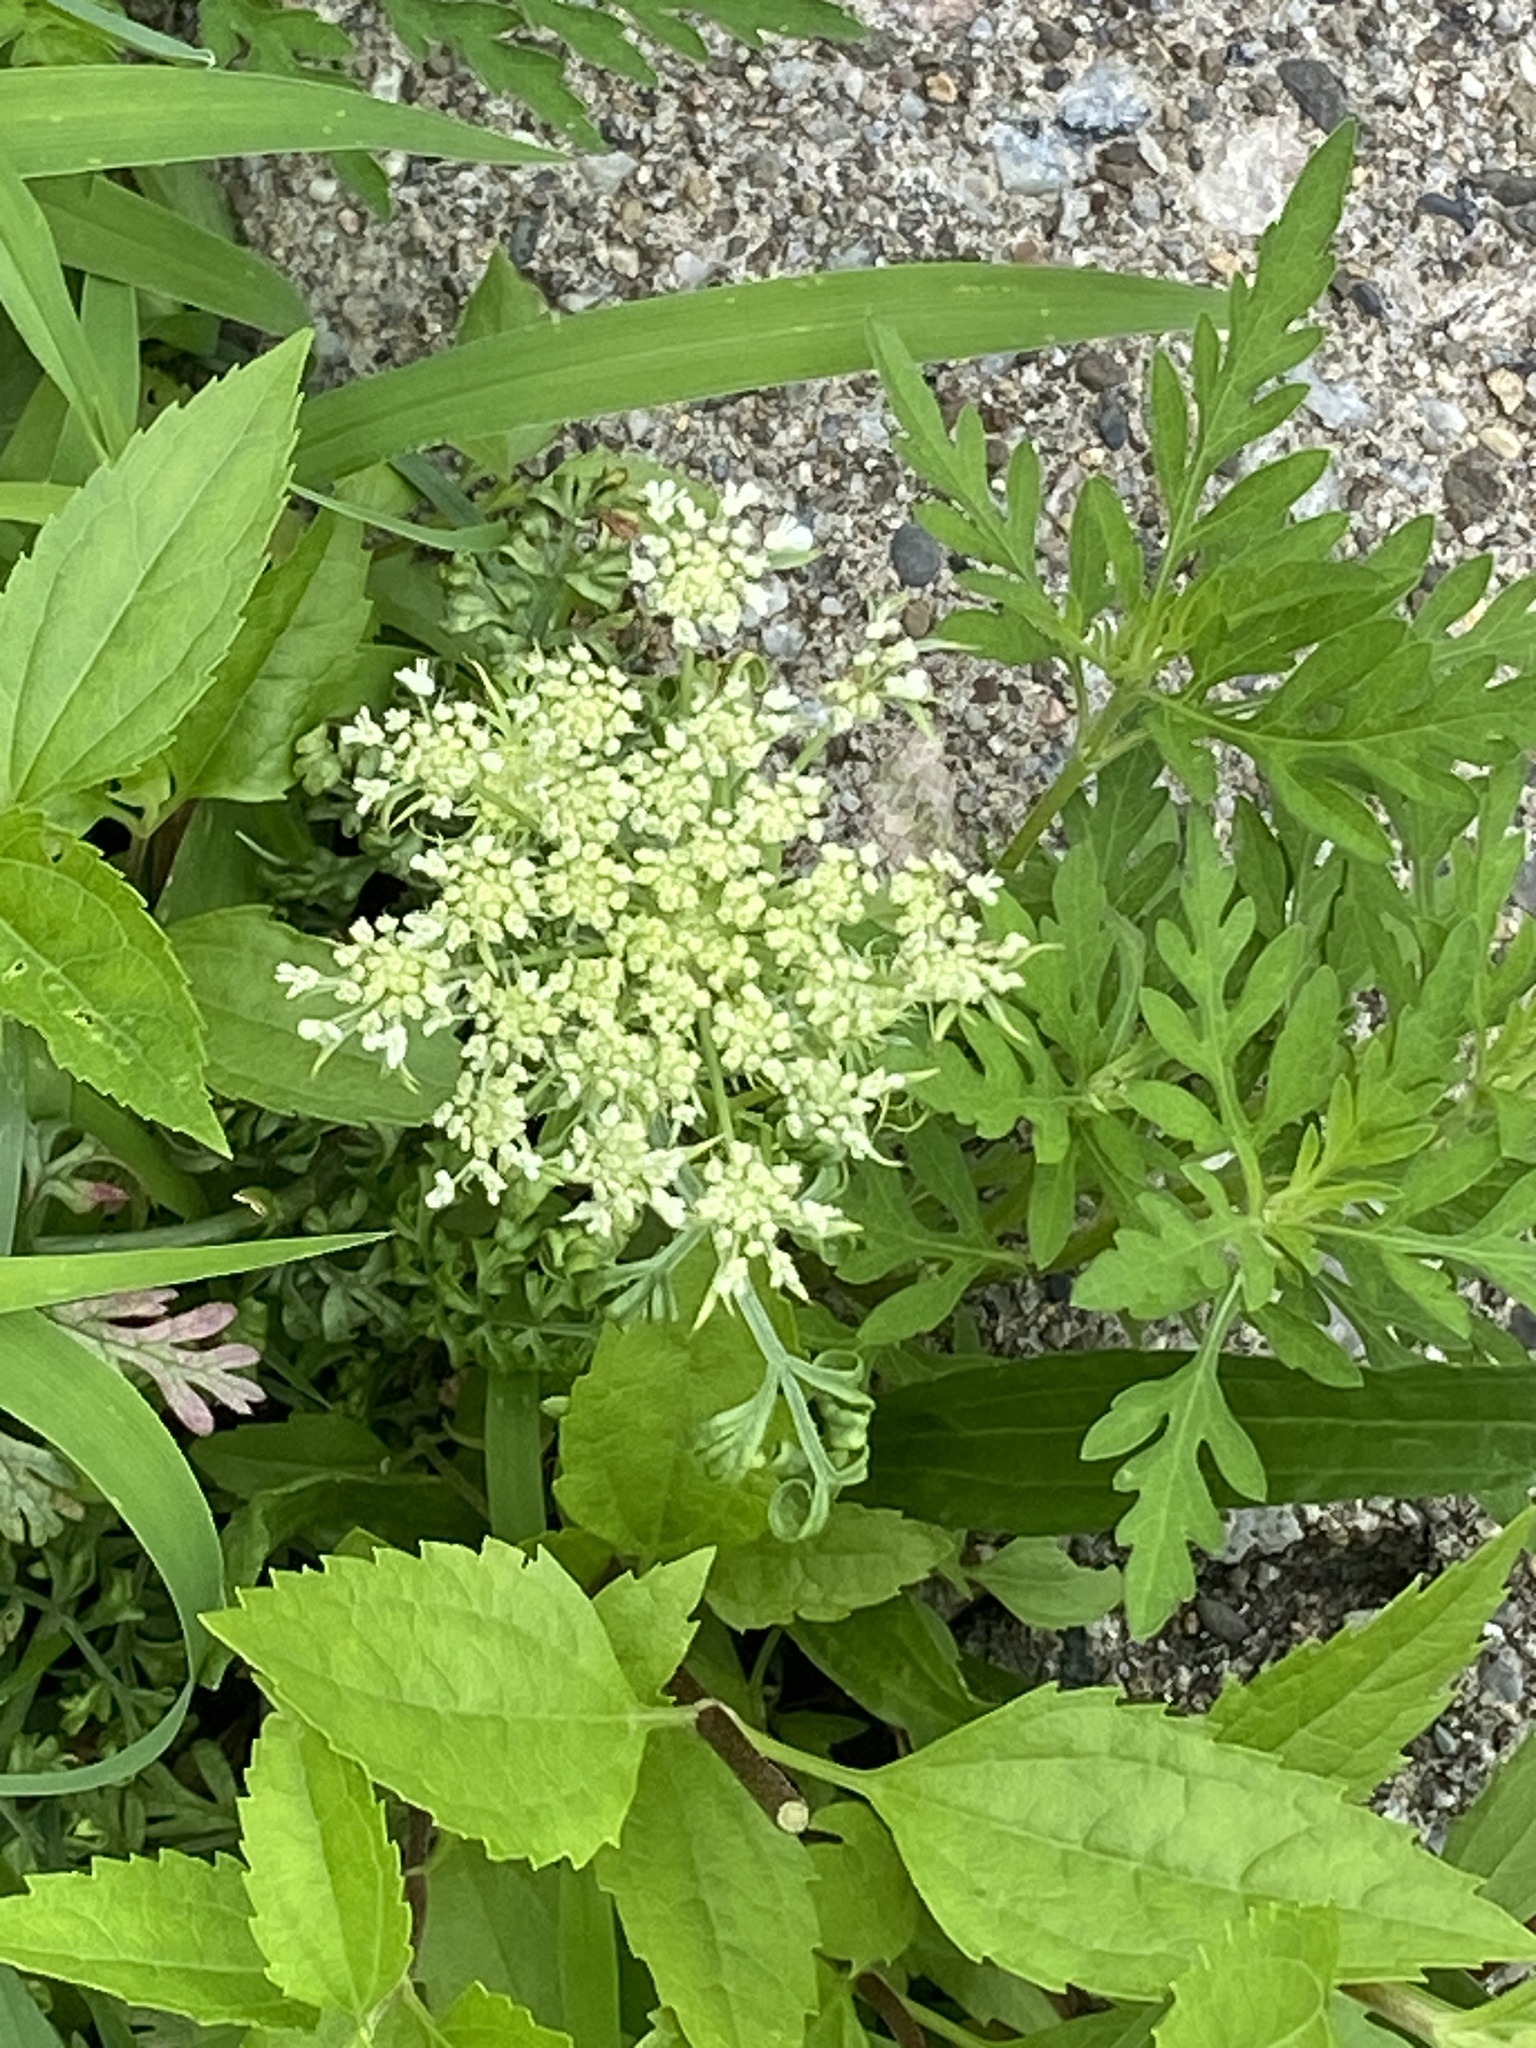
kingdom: Plantae
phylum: Tracheophyta
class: Magnoliopsida
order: Apiales
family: Apiaceae
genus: Daucus
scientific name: Daucus carota
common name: Wild carrot
